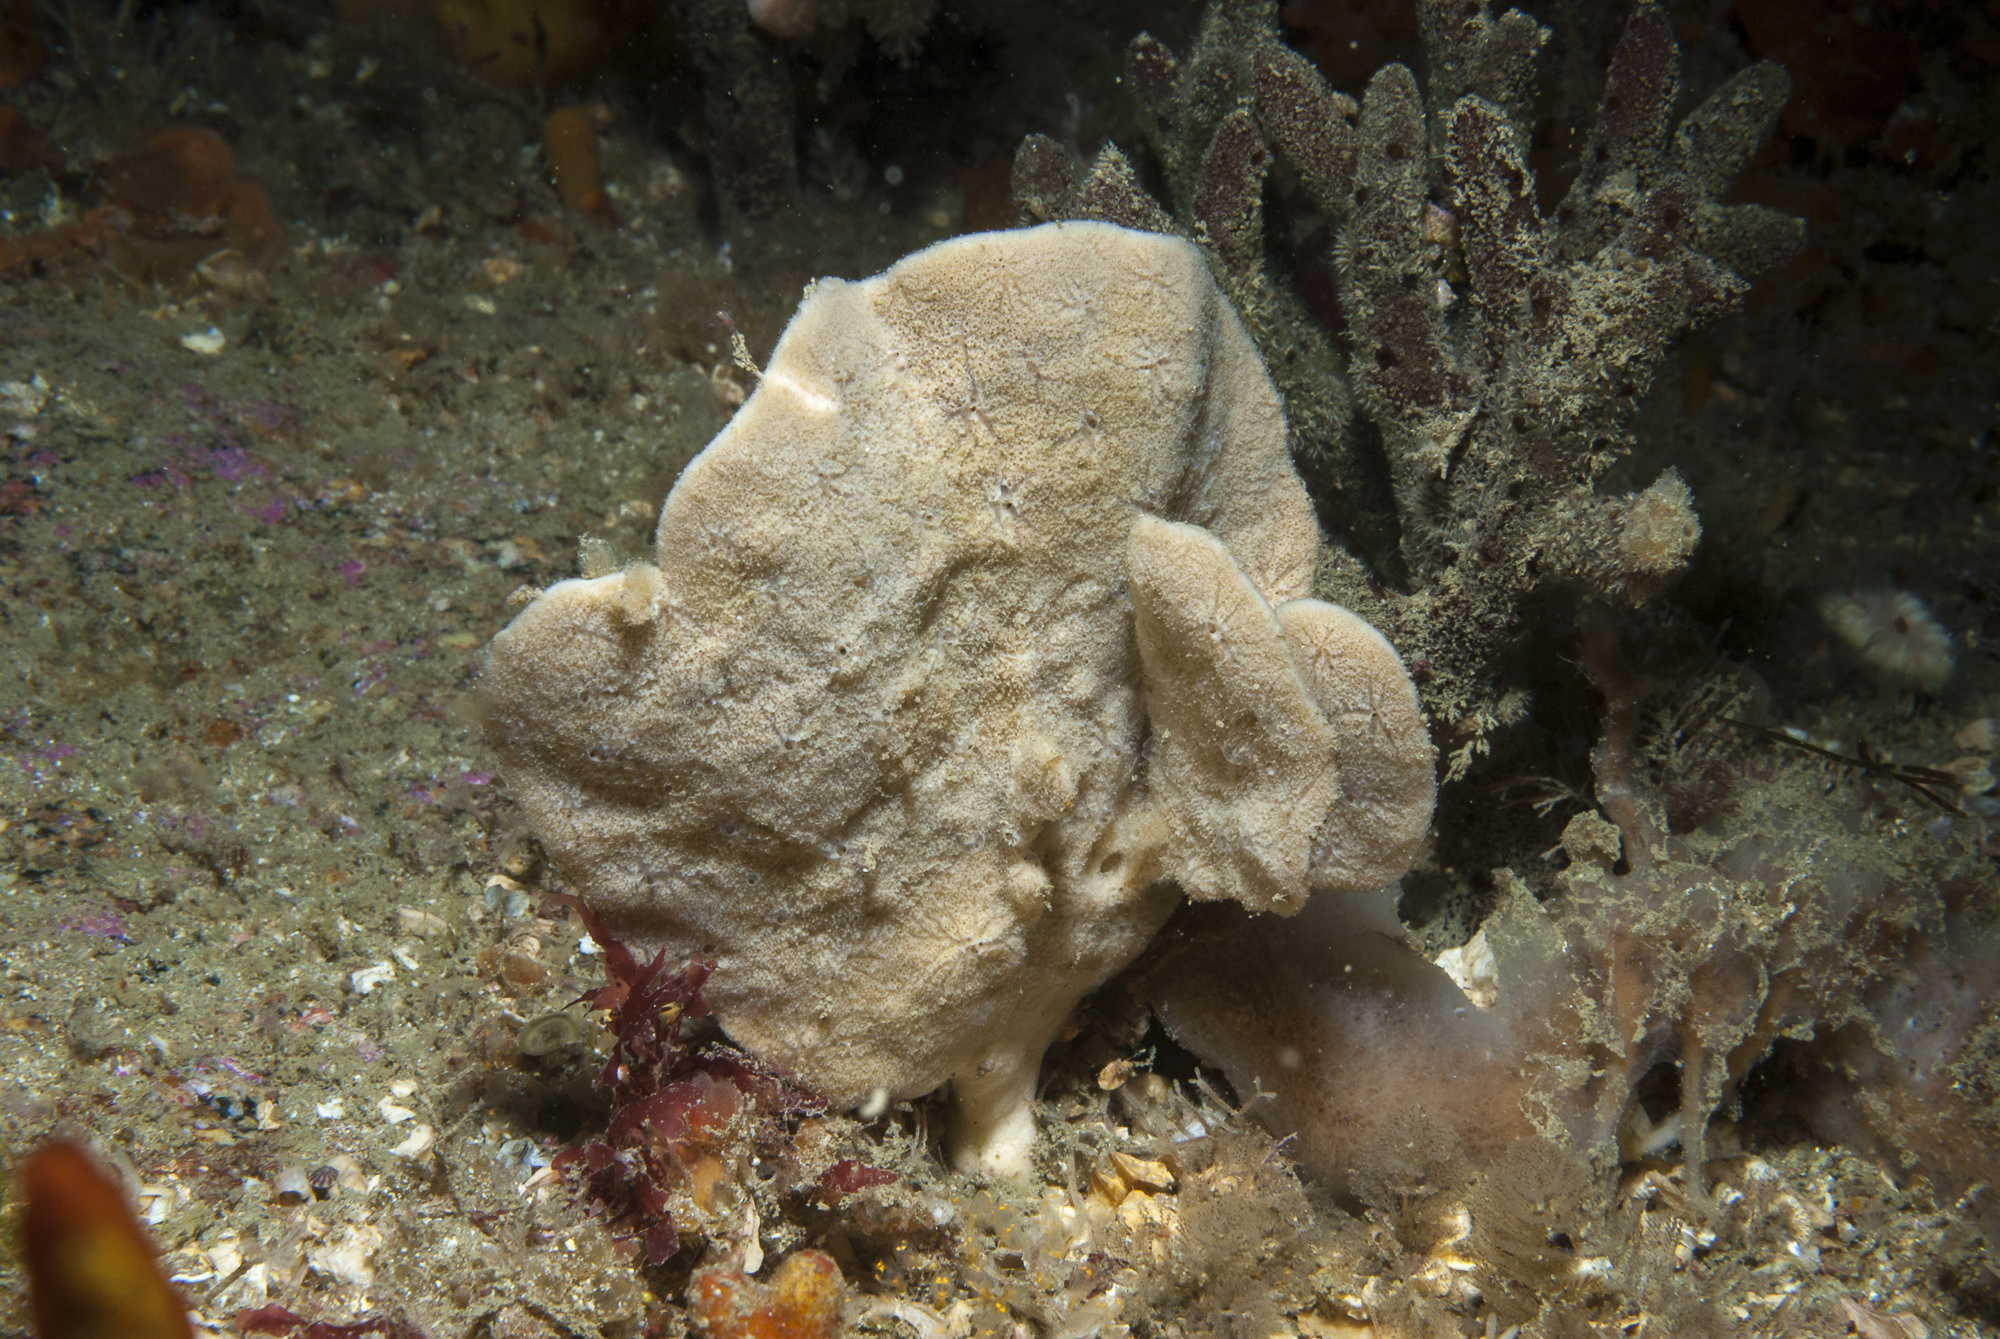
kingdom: Animalia
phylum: Porifera
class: Demospongiae
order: Axinellida
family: Axinellidae
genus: Axinella
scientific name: Axinella flustra
